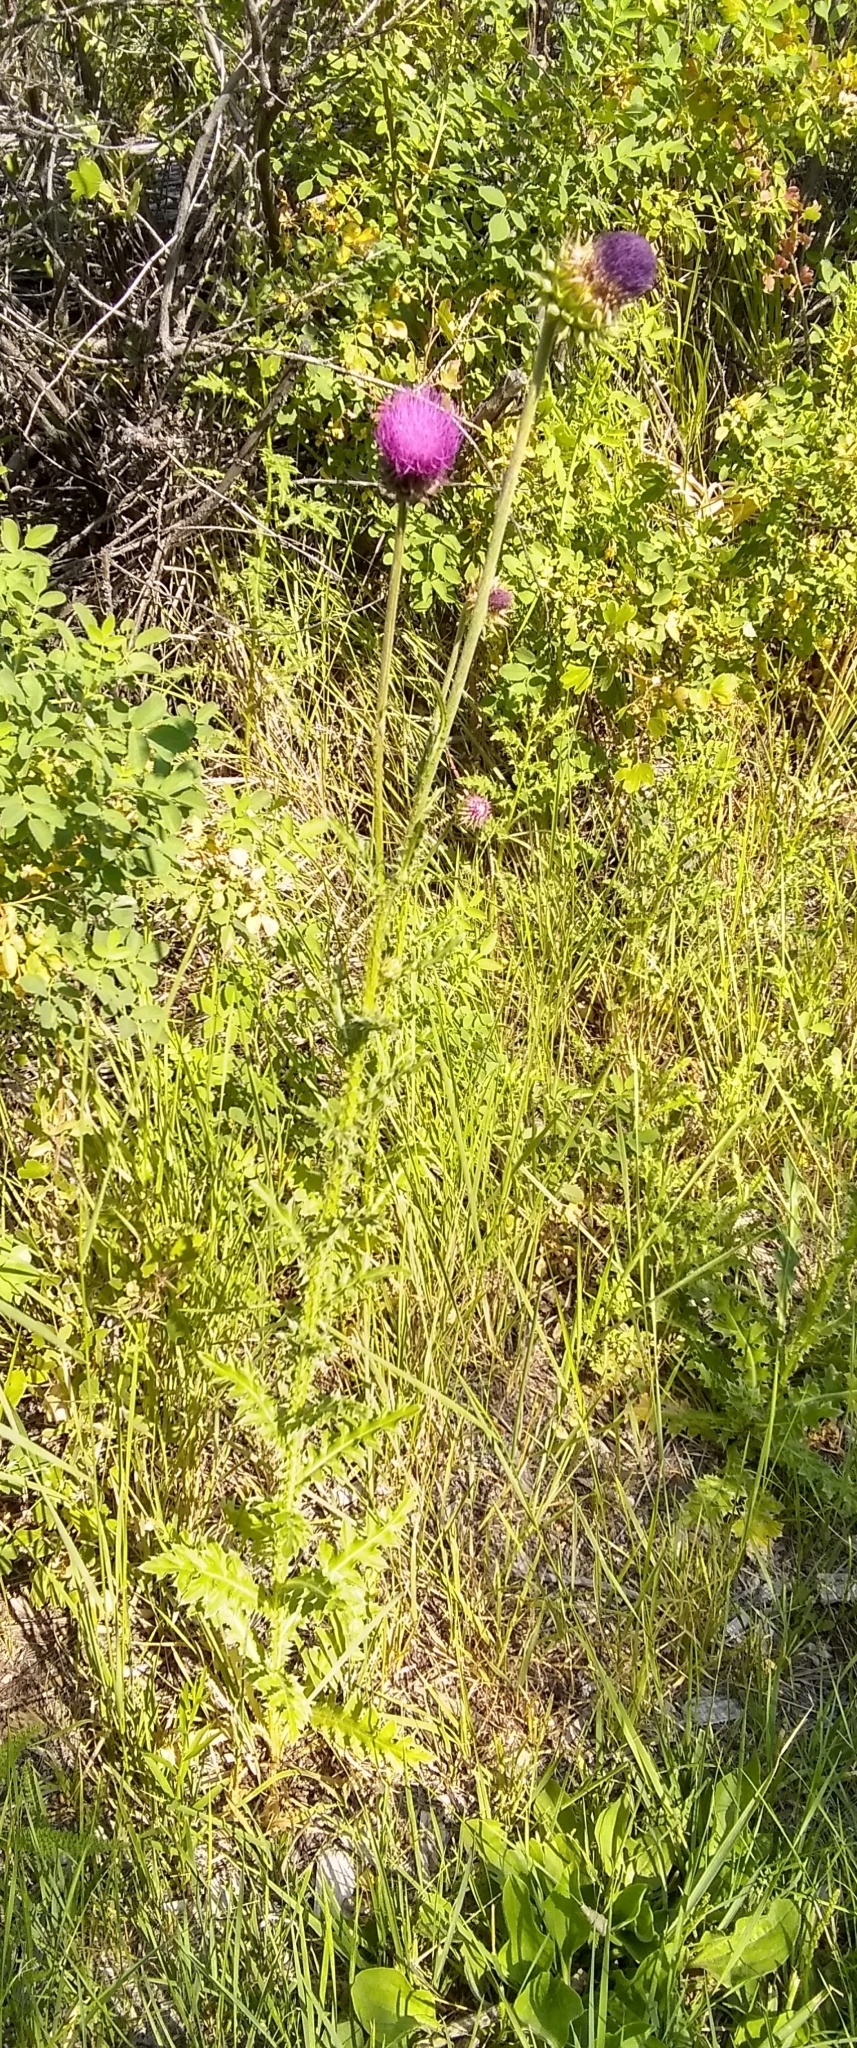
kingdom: Plantae
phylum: Tracheophyta
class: Magnoliopsida
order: Asterales
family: Asteraceae
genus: Carduus
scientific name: Carduus nutans
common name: Musk thistle
